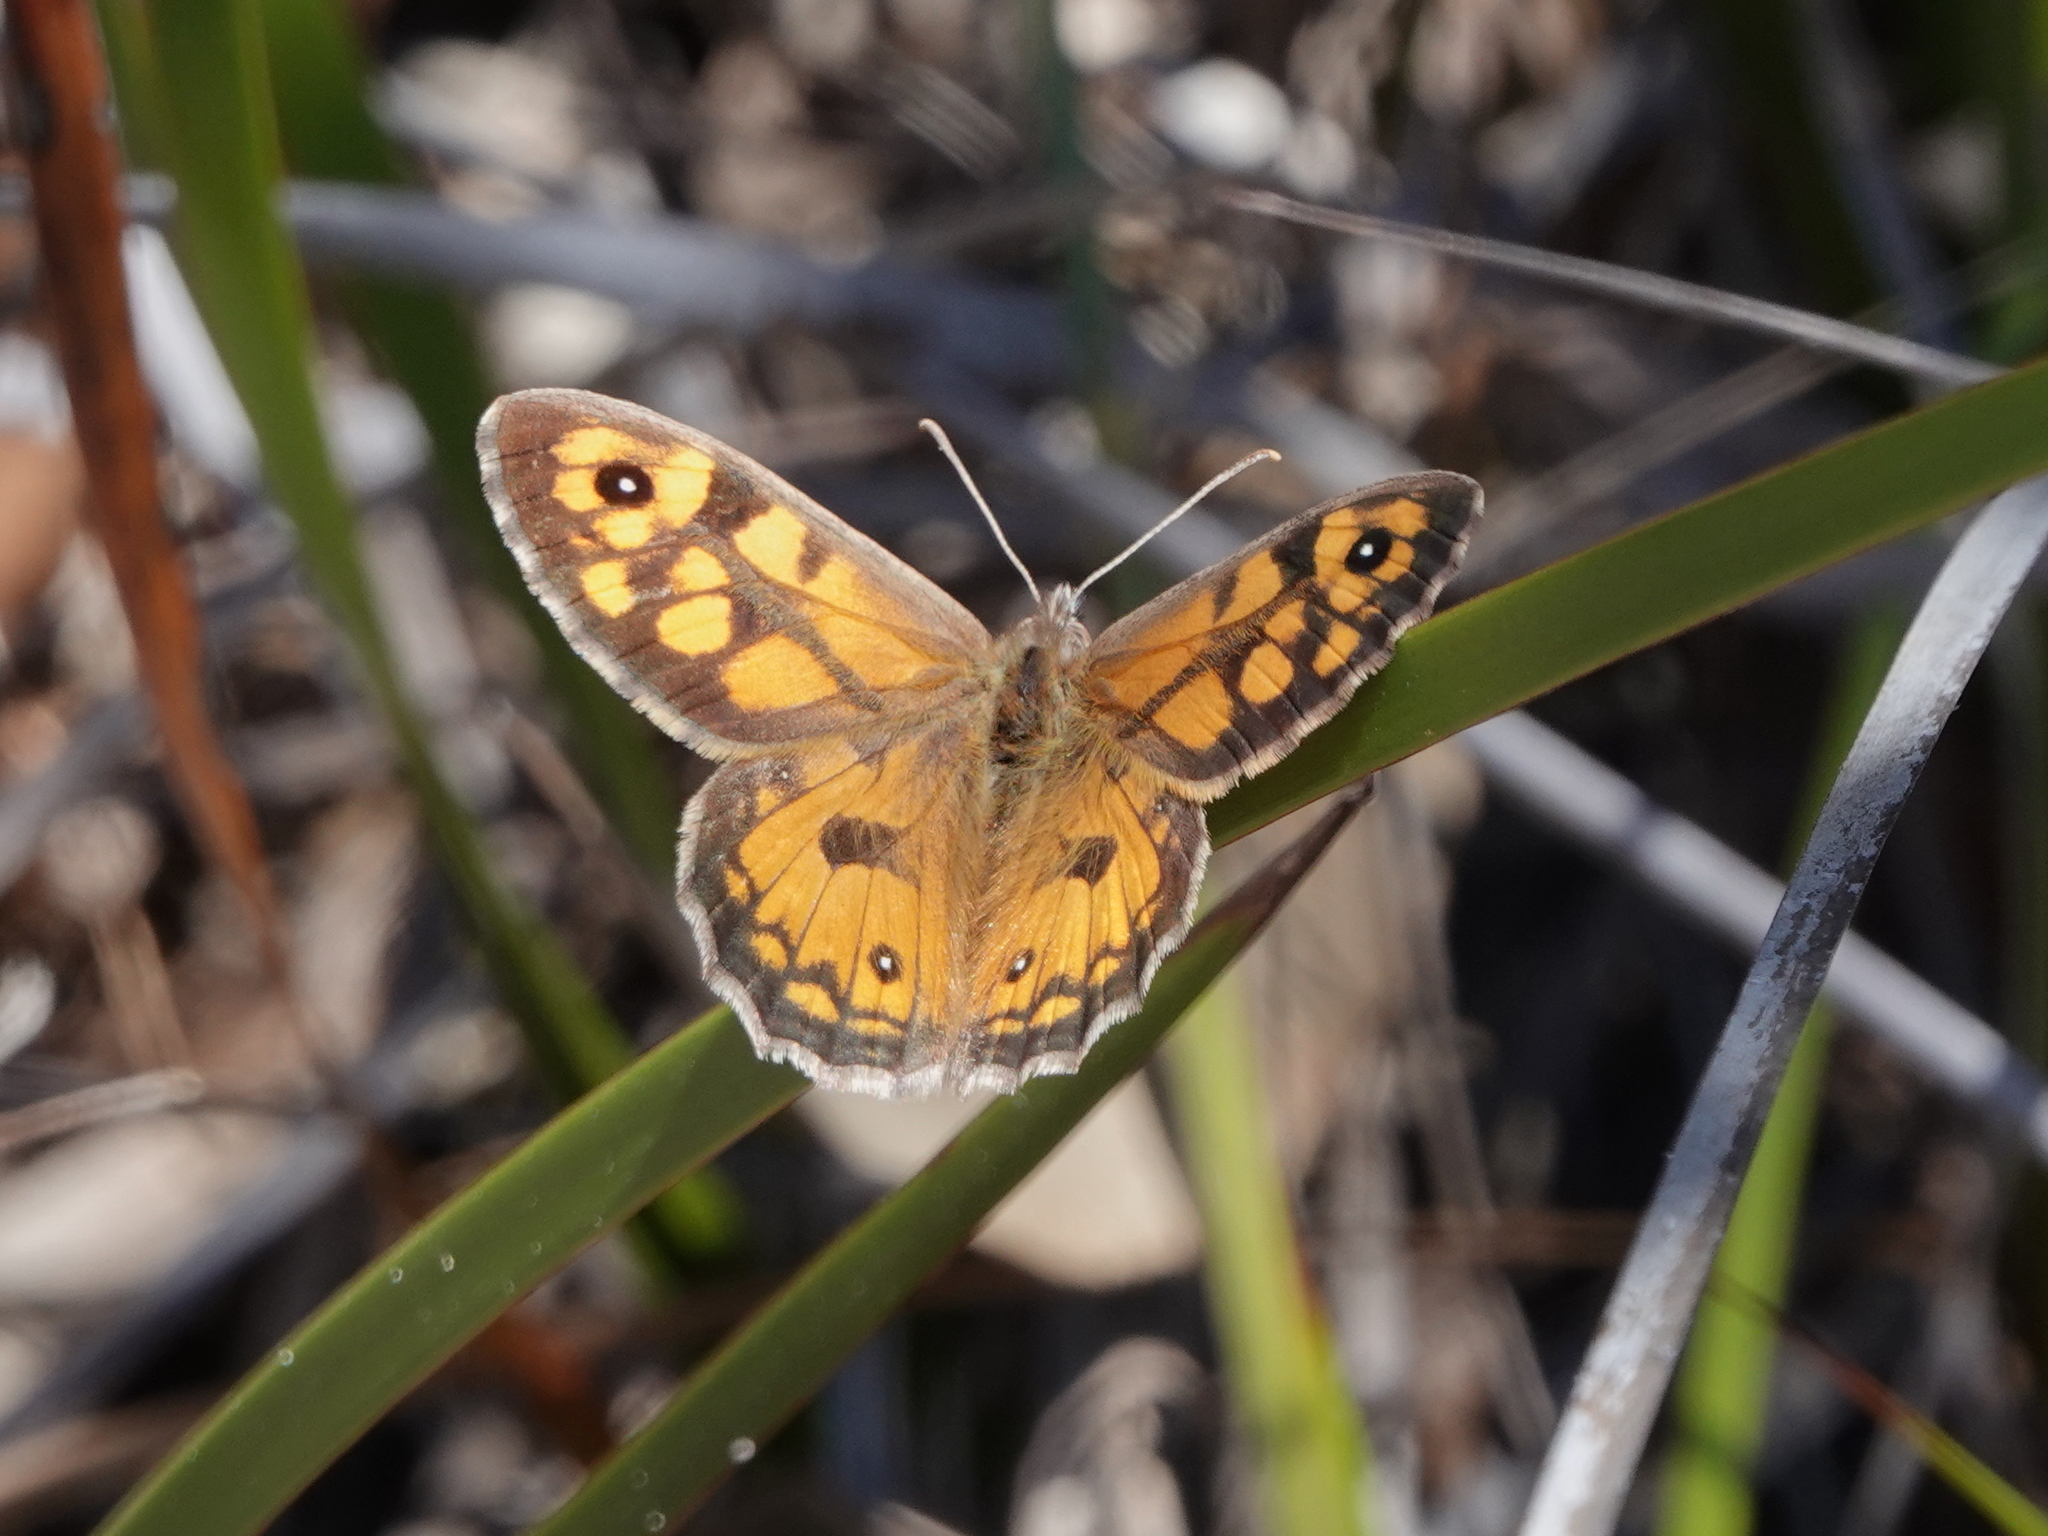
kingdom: Animalia
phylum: Arthropoda
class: Insecta
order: Lepidoptera
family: Nymphalidae
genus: Geitoneura
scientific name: Geitoneura klugii
